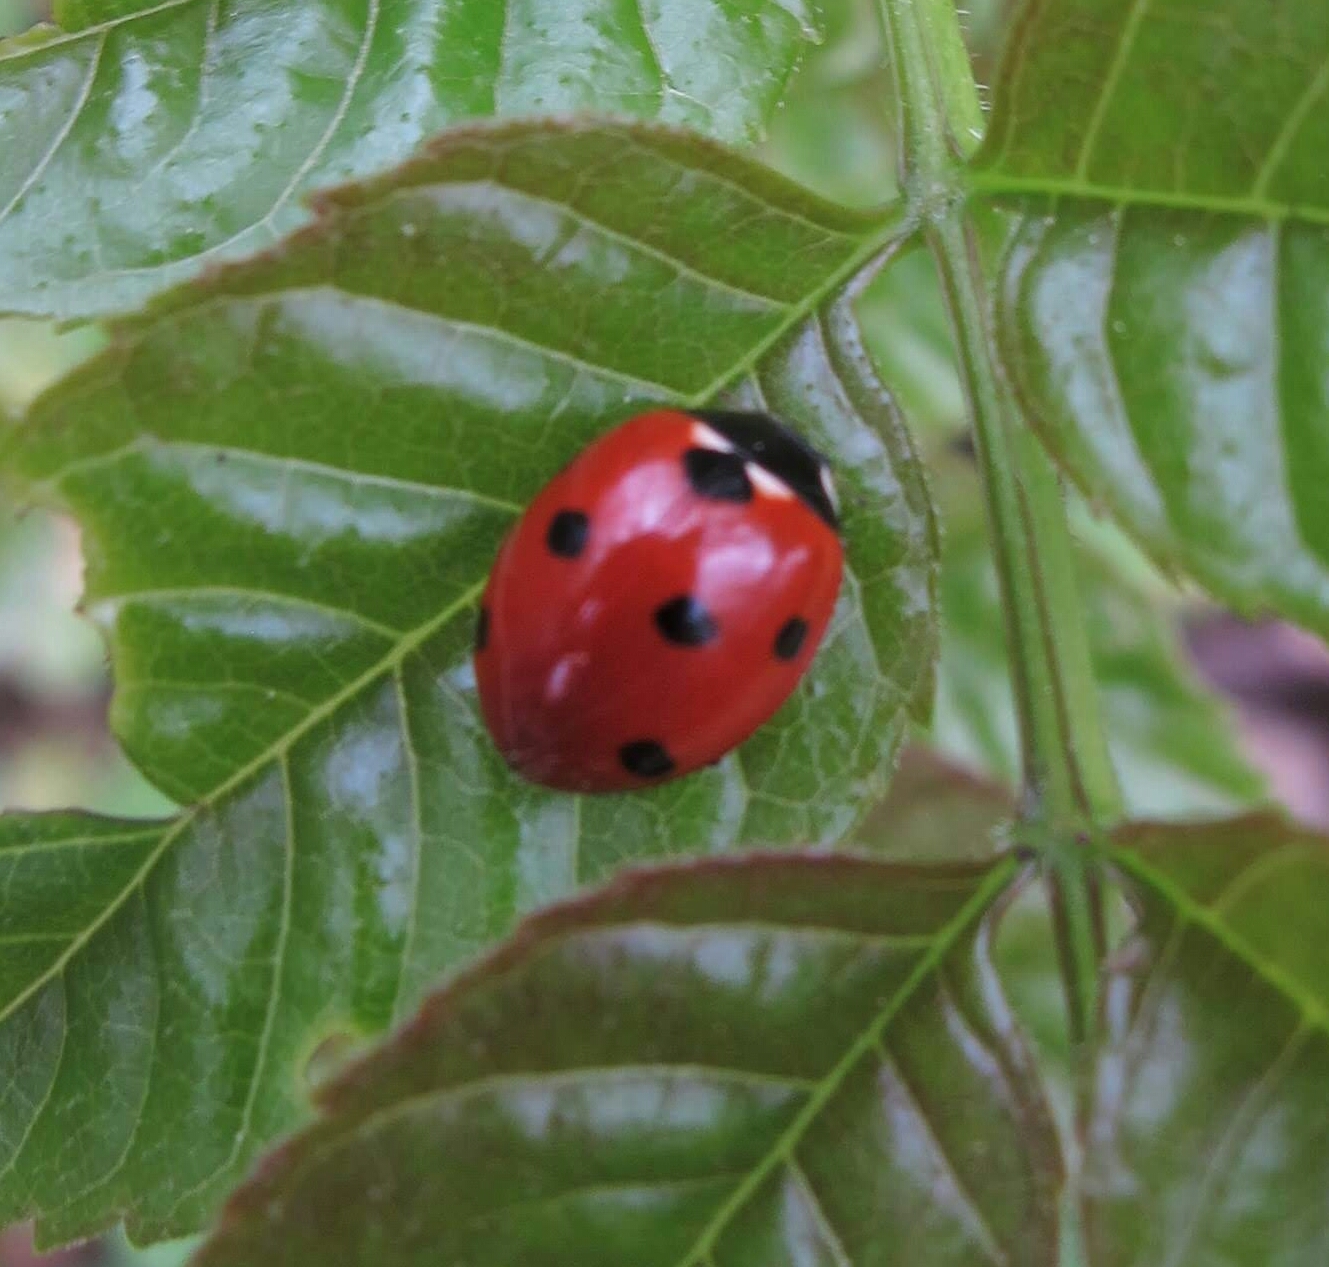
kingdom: Animalia
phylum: Arthropoda
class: Insecta
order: Coleoptera
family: Coccinellidae
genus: Coccinella
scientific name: Coccinella septempunctata
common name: Sevenspotted lady beetle
